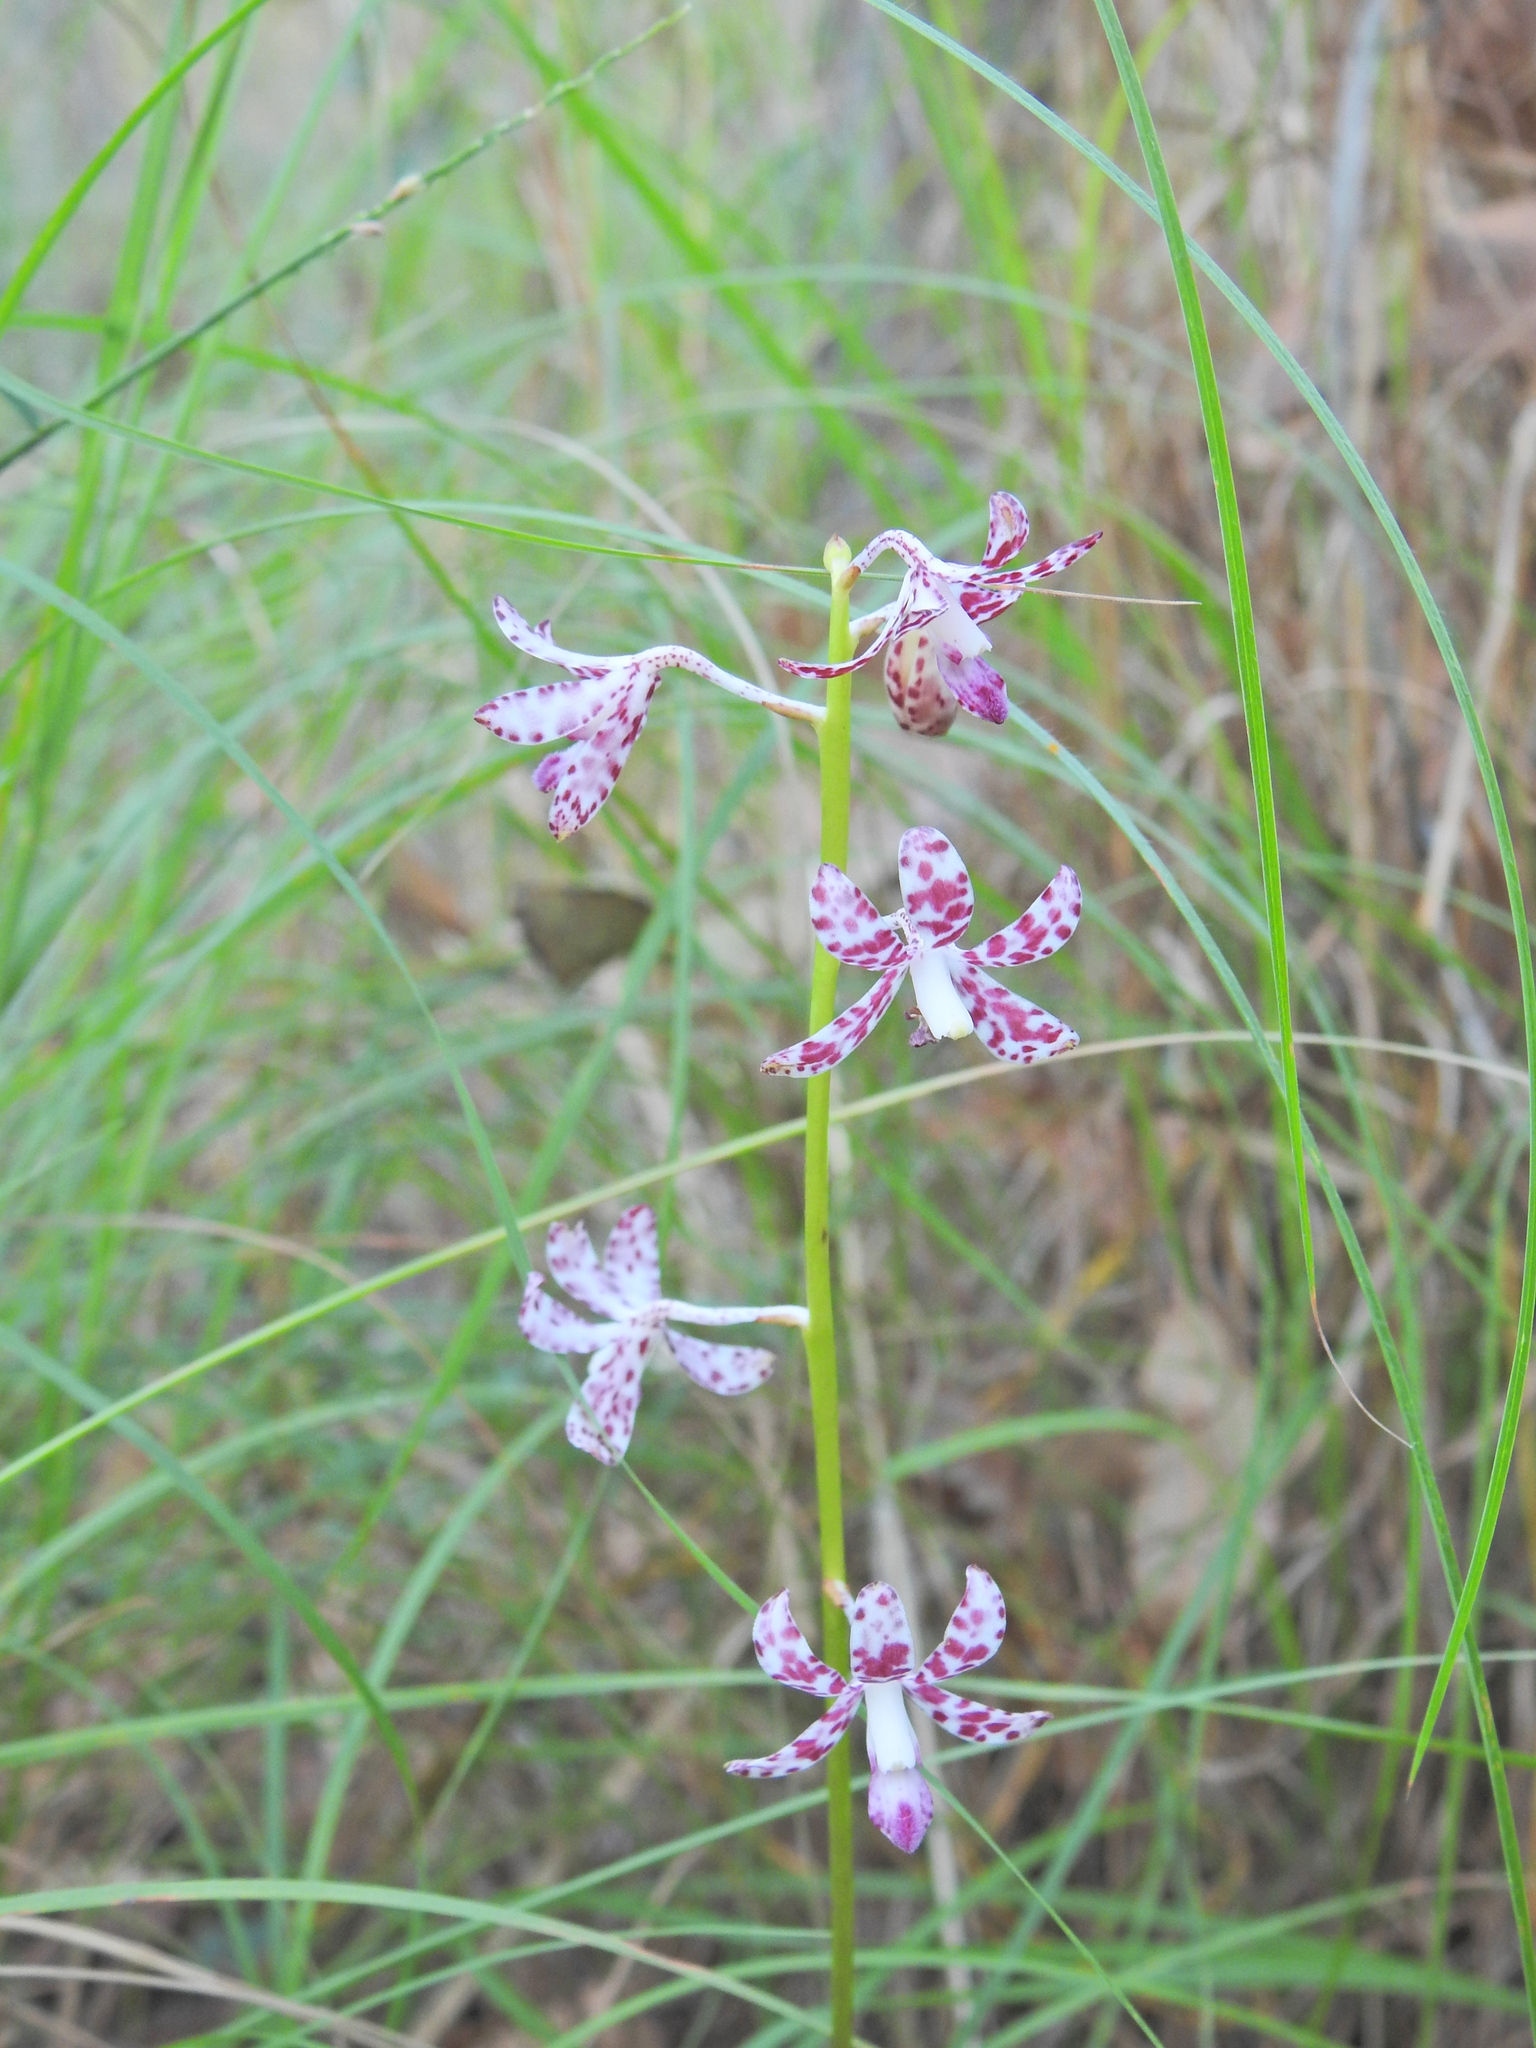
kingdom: Plantae
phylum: Tracheophyta
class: Liliopsida
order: Asparagales
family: Orchidaceae
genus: Dipodium
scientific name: Dipodium variegatum
